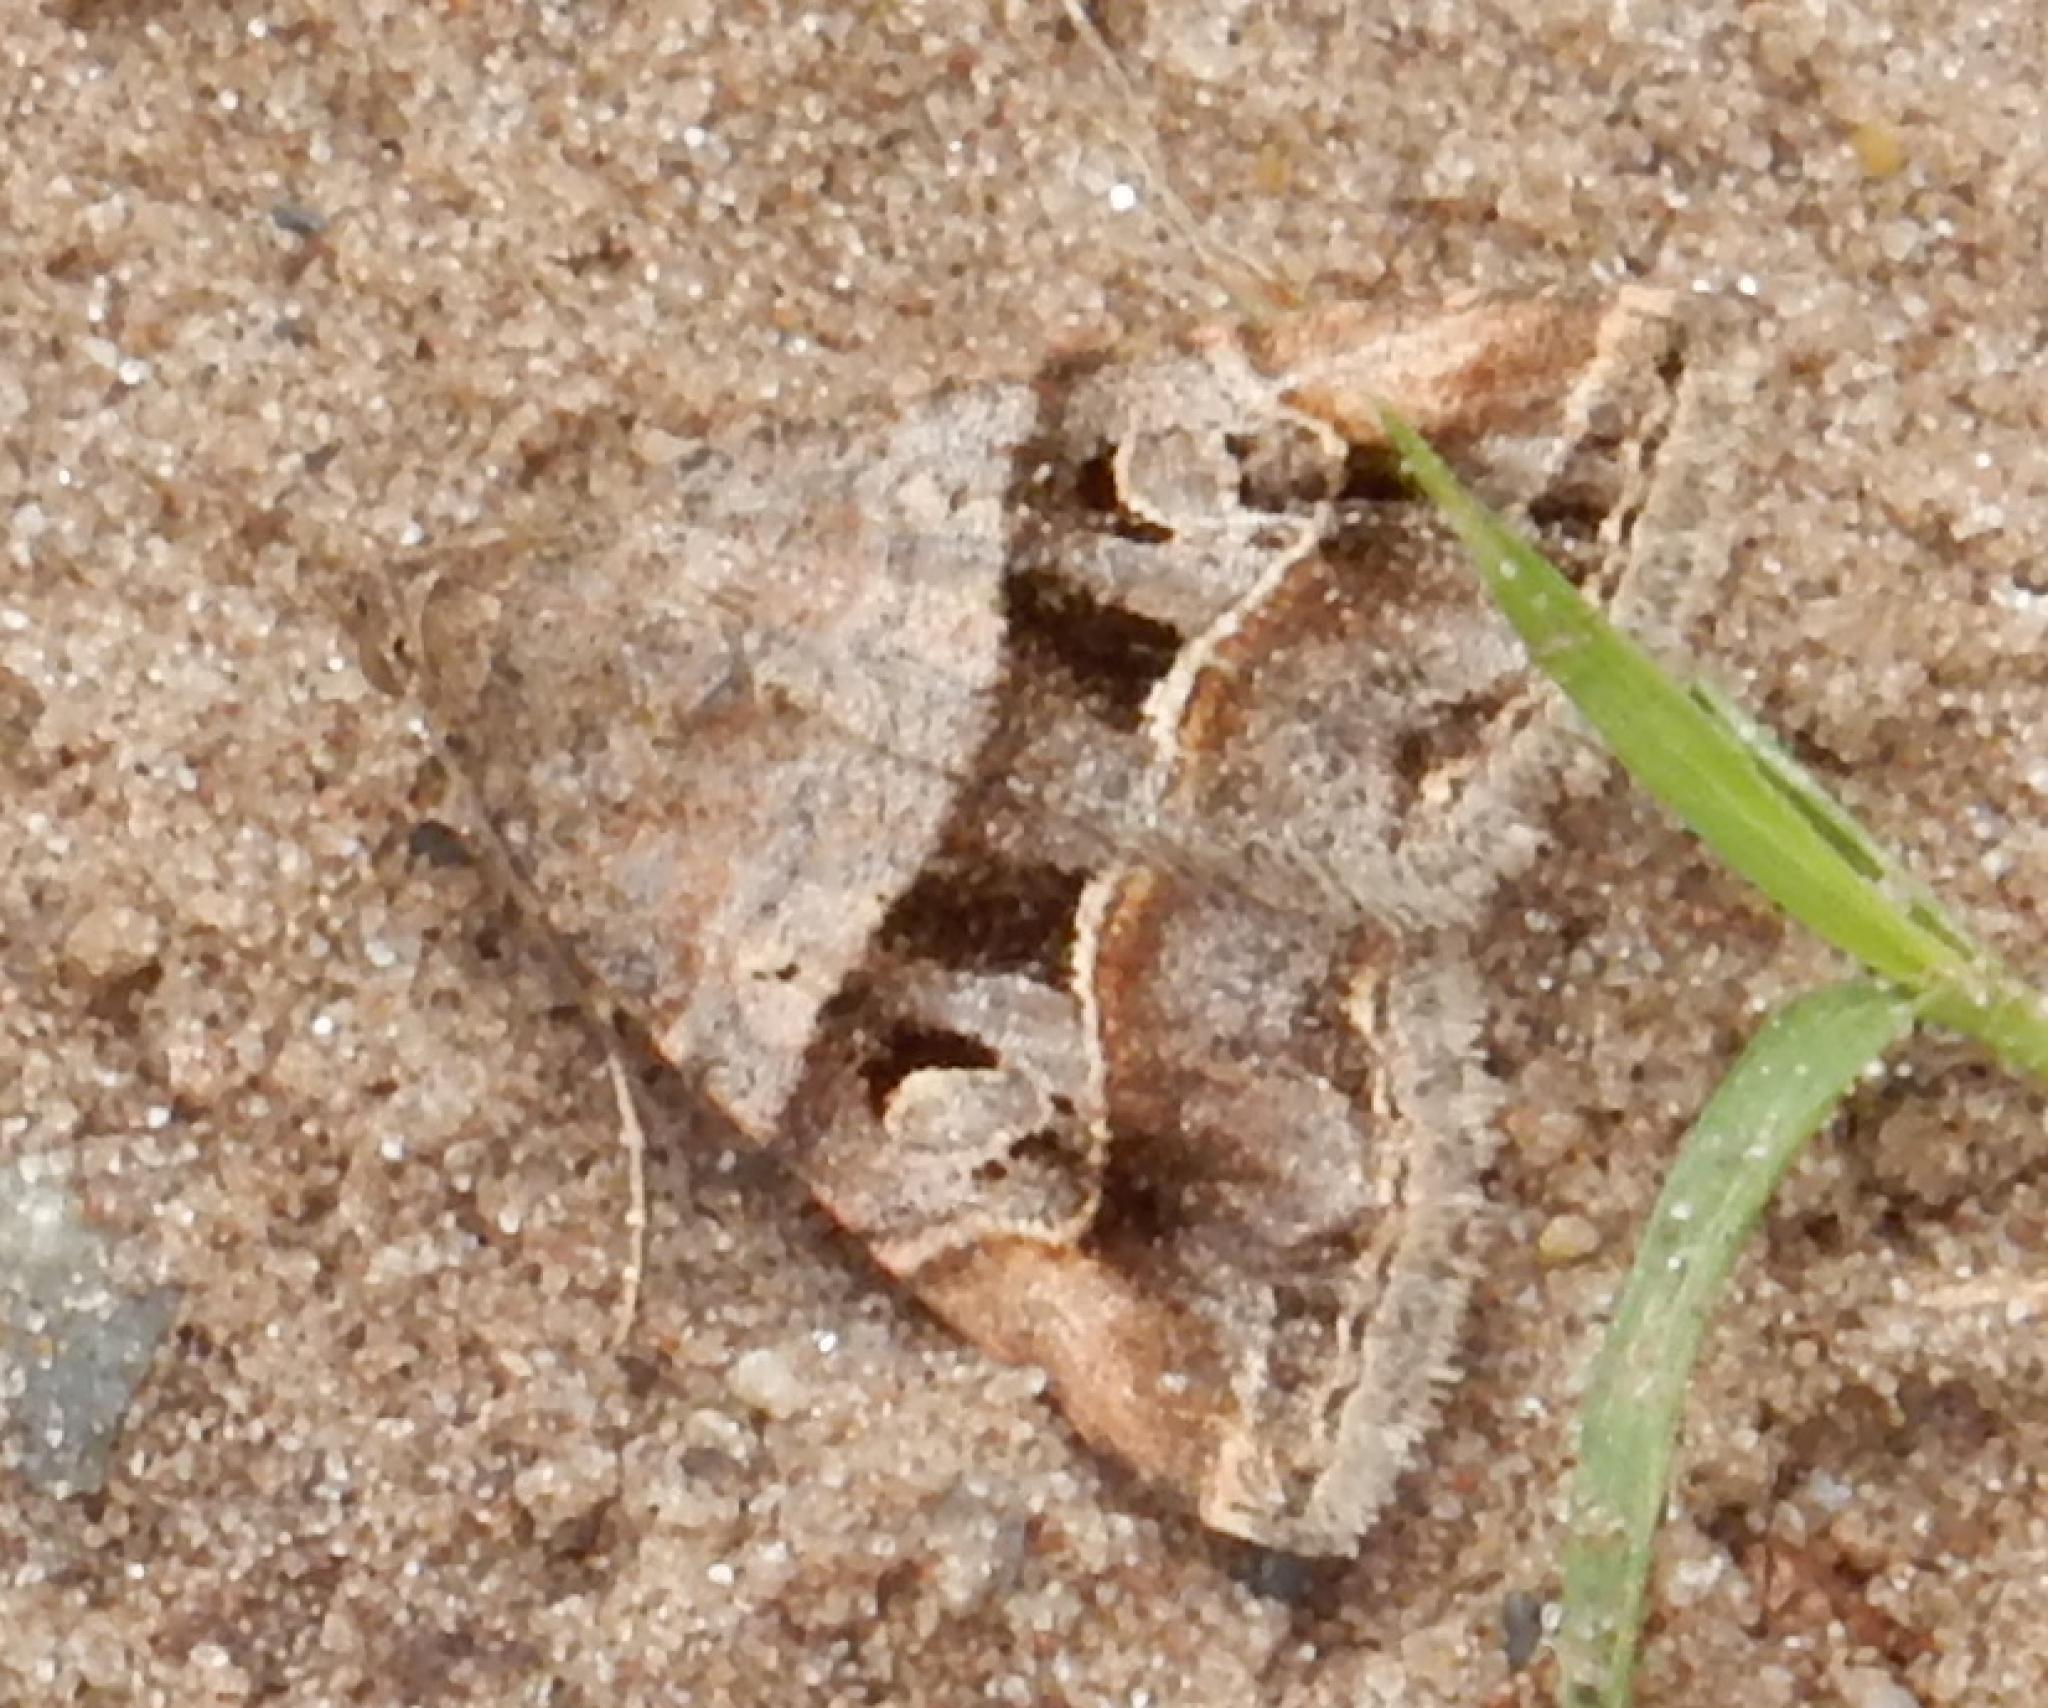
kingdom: Animalia
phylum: Arthropoda
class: Insecta
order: Lepidoptera
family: Noctuidae
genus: Ozarba
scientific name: Ozarba corniculans
